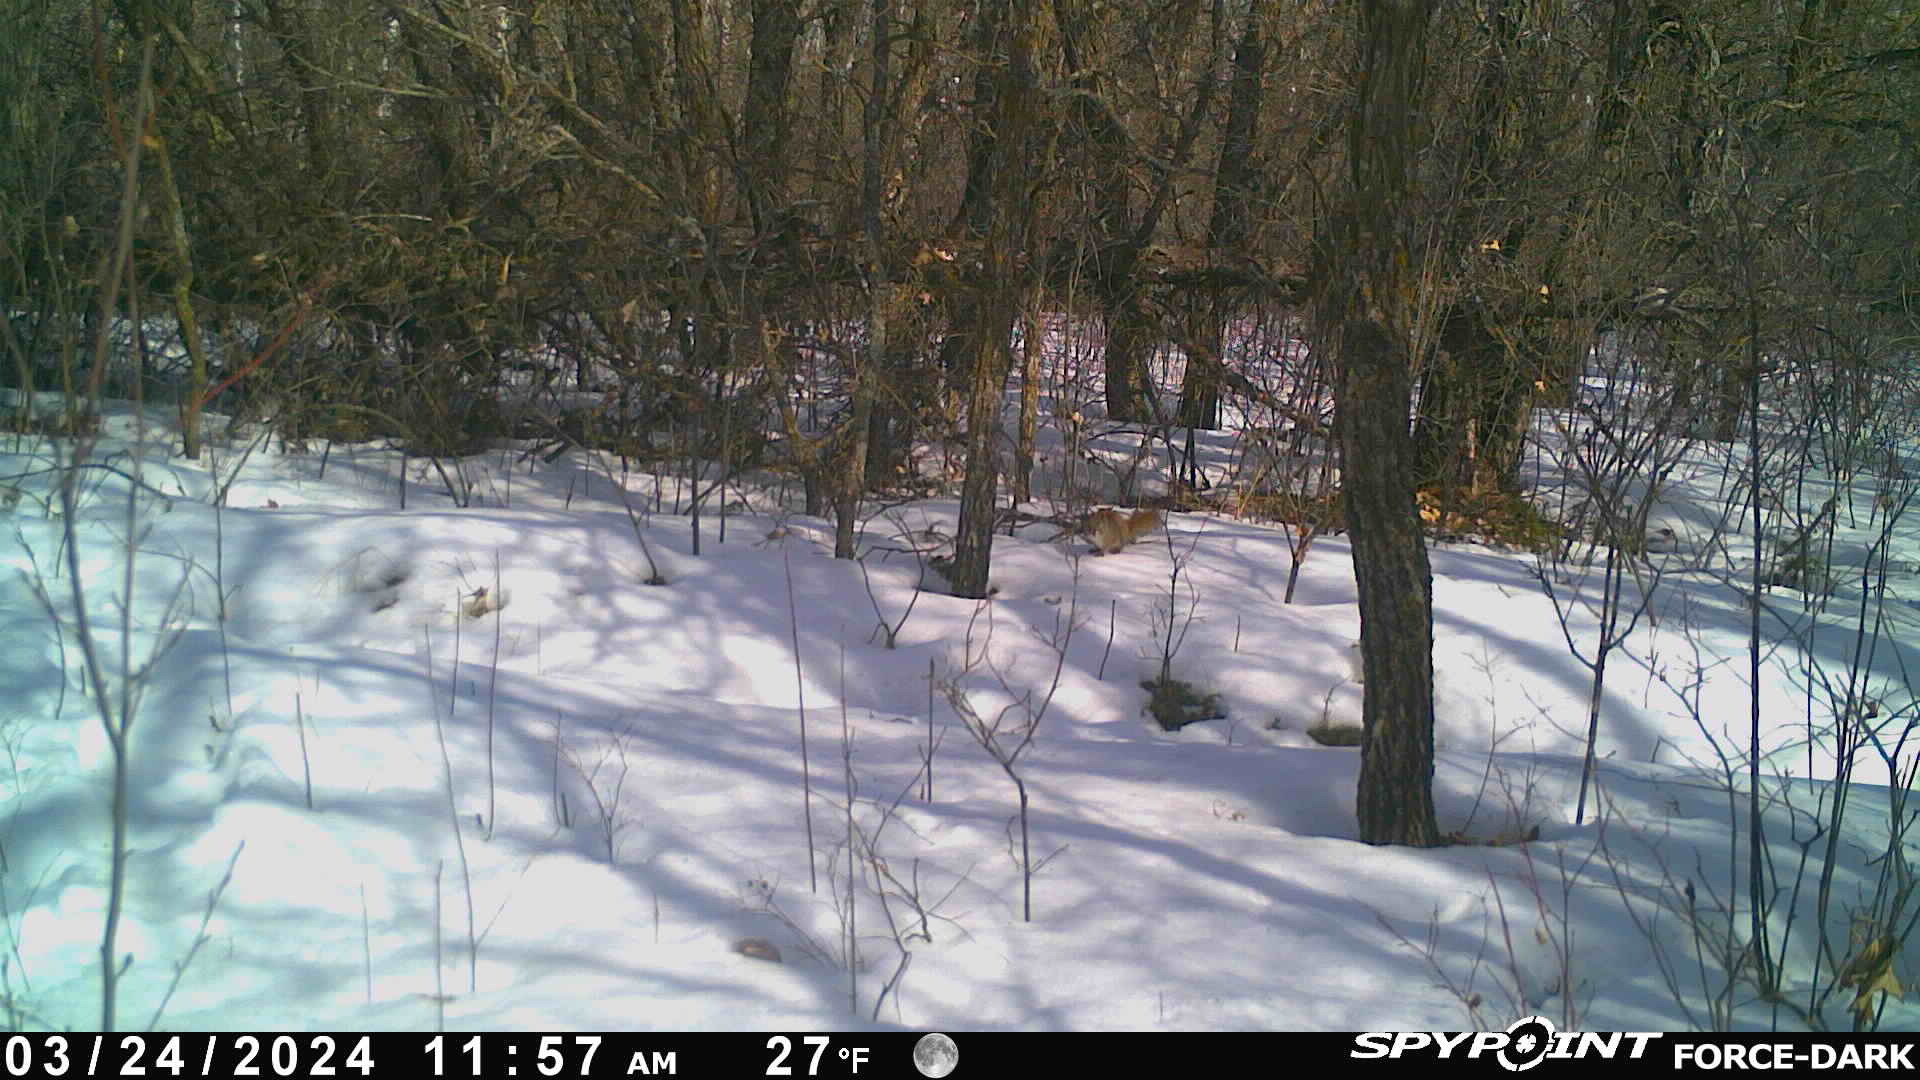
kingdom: Animalia
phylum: Chordata
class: Mammalia
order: Rodentia
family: Sciuridae
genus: Tamiasciurus
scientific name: Tamiasciurus hudsonicus
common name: Red squirrel
